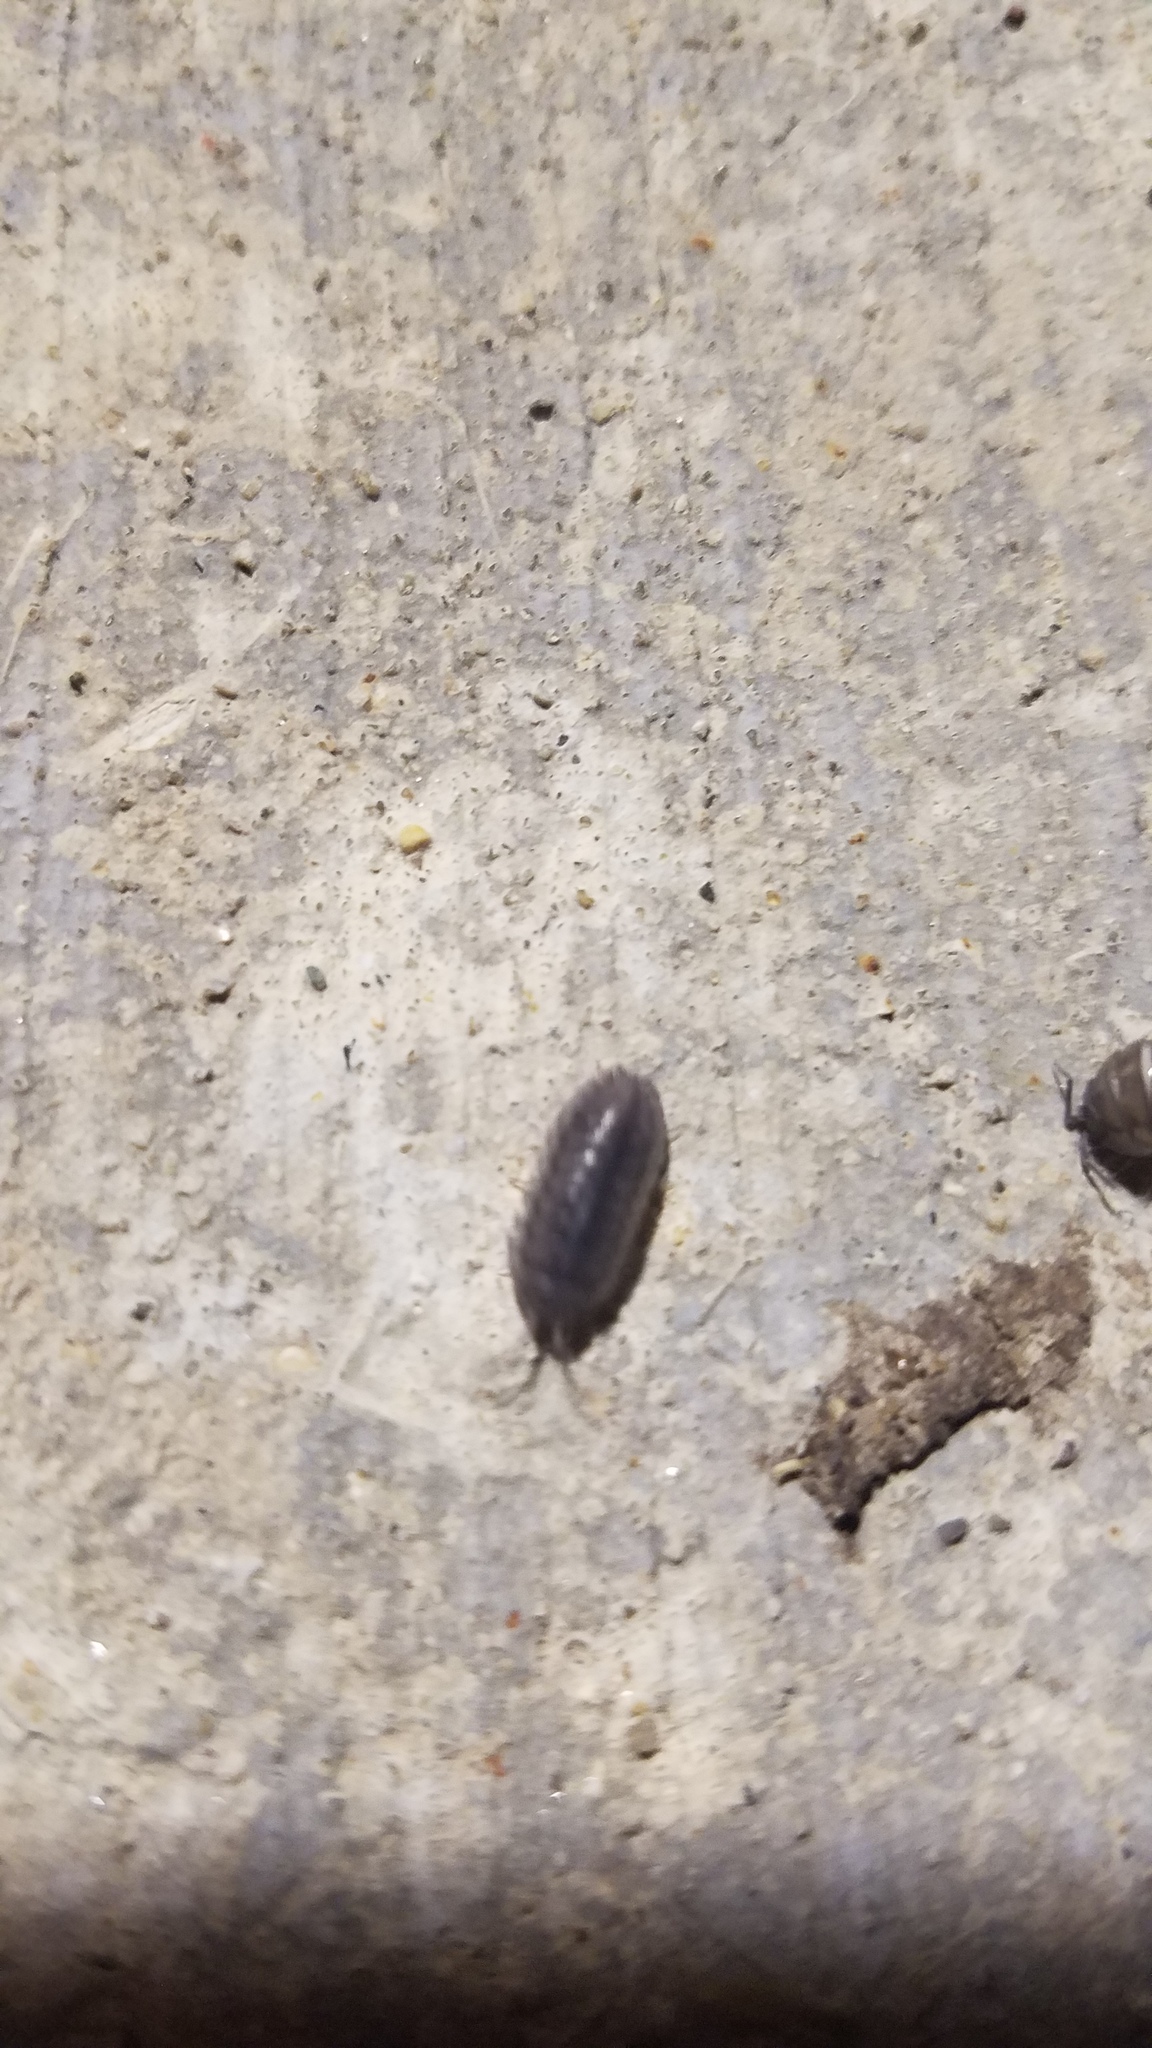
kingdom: Animalia
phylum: Arthropoda
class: Malacostraca
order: Isopoda
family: Armadillidiidae
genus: Armadillidium
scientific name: Armadillidium nasatum
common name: Isopod
